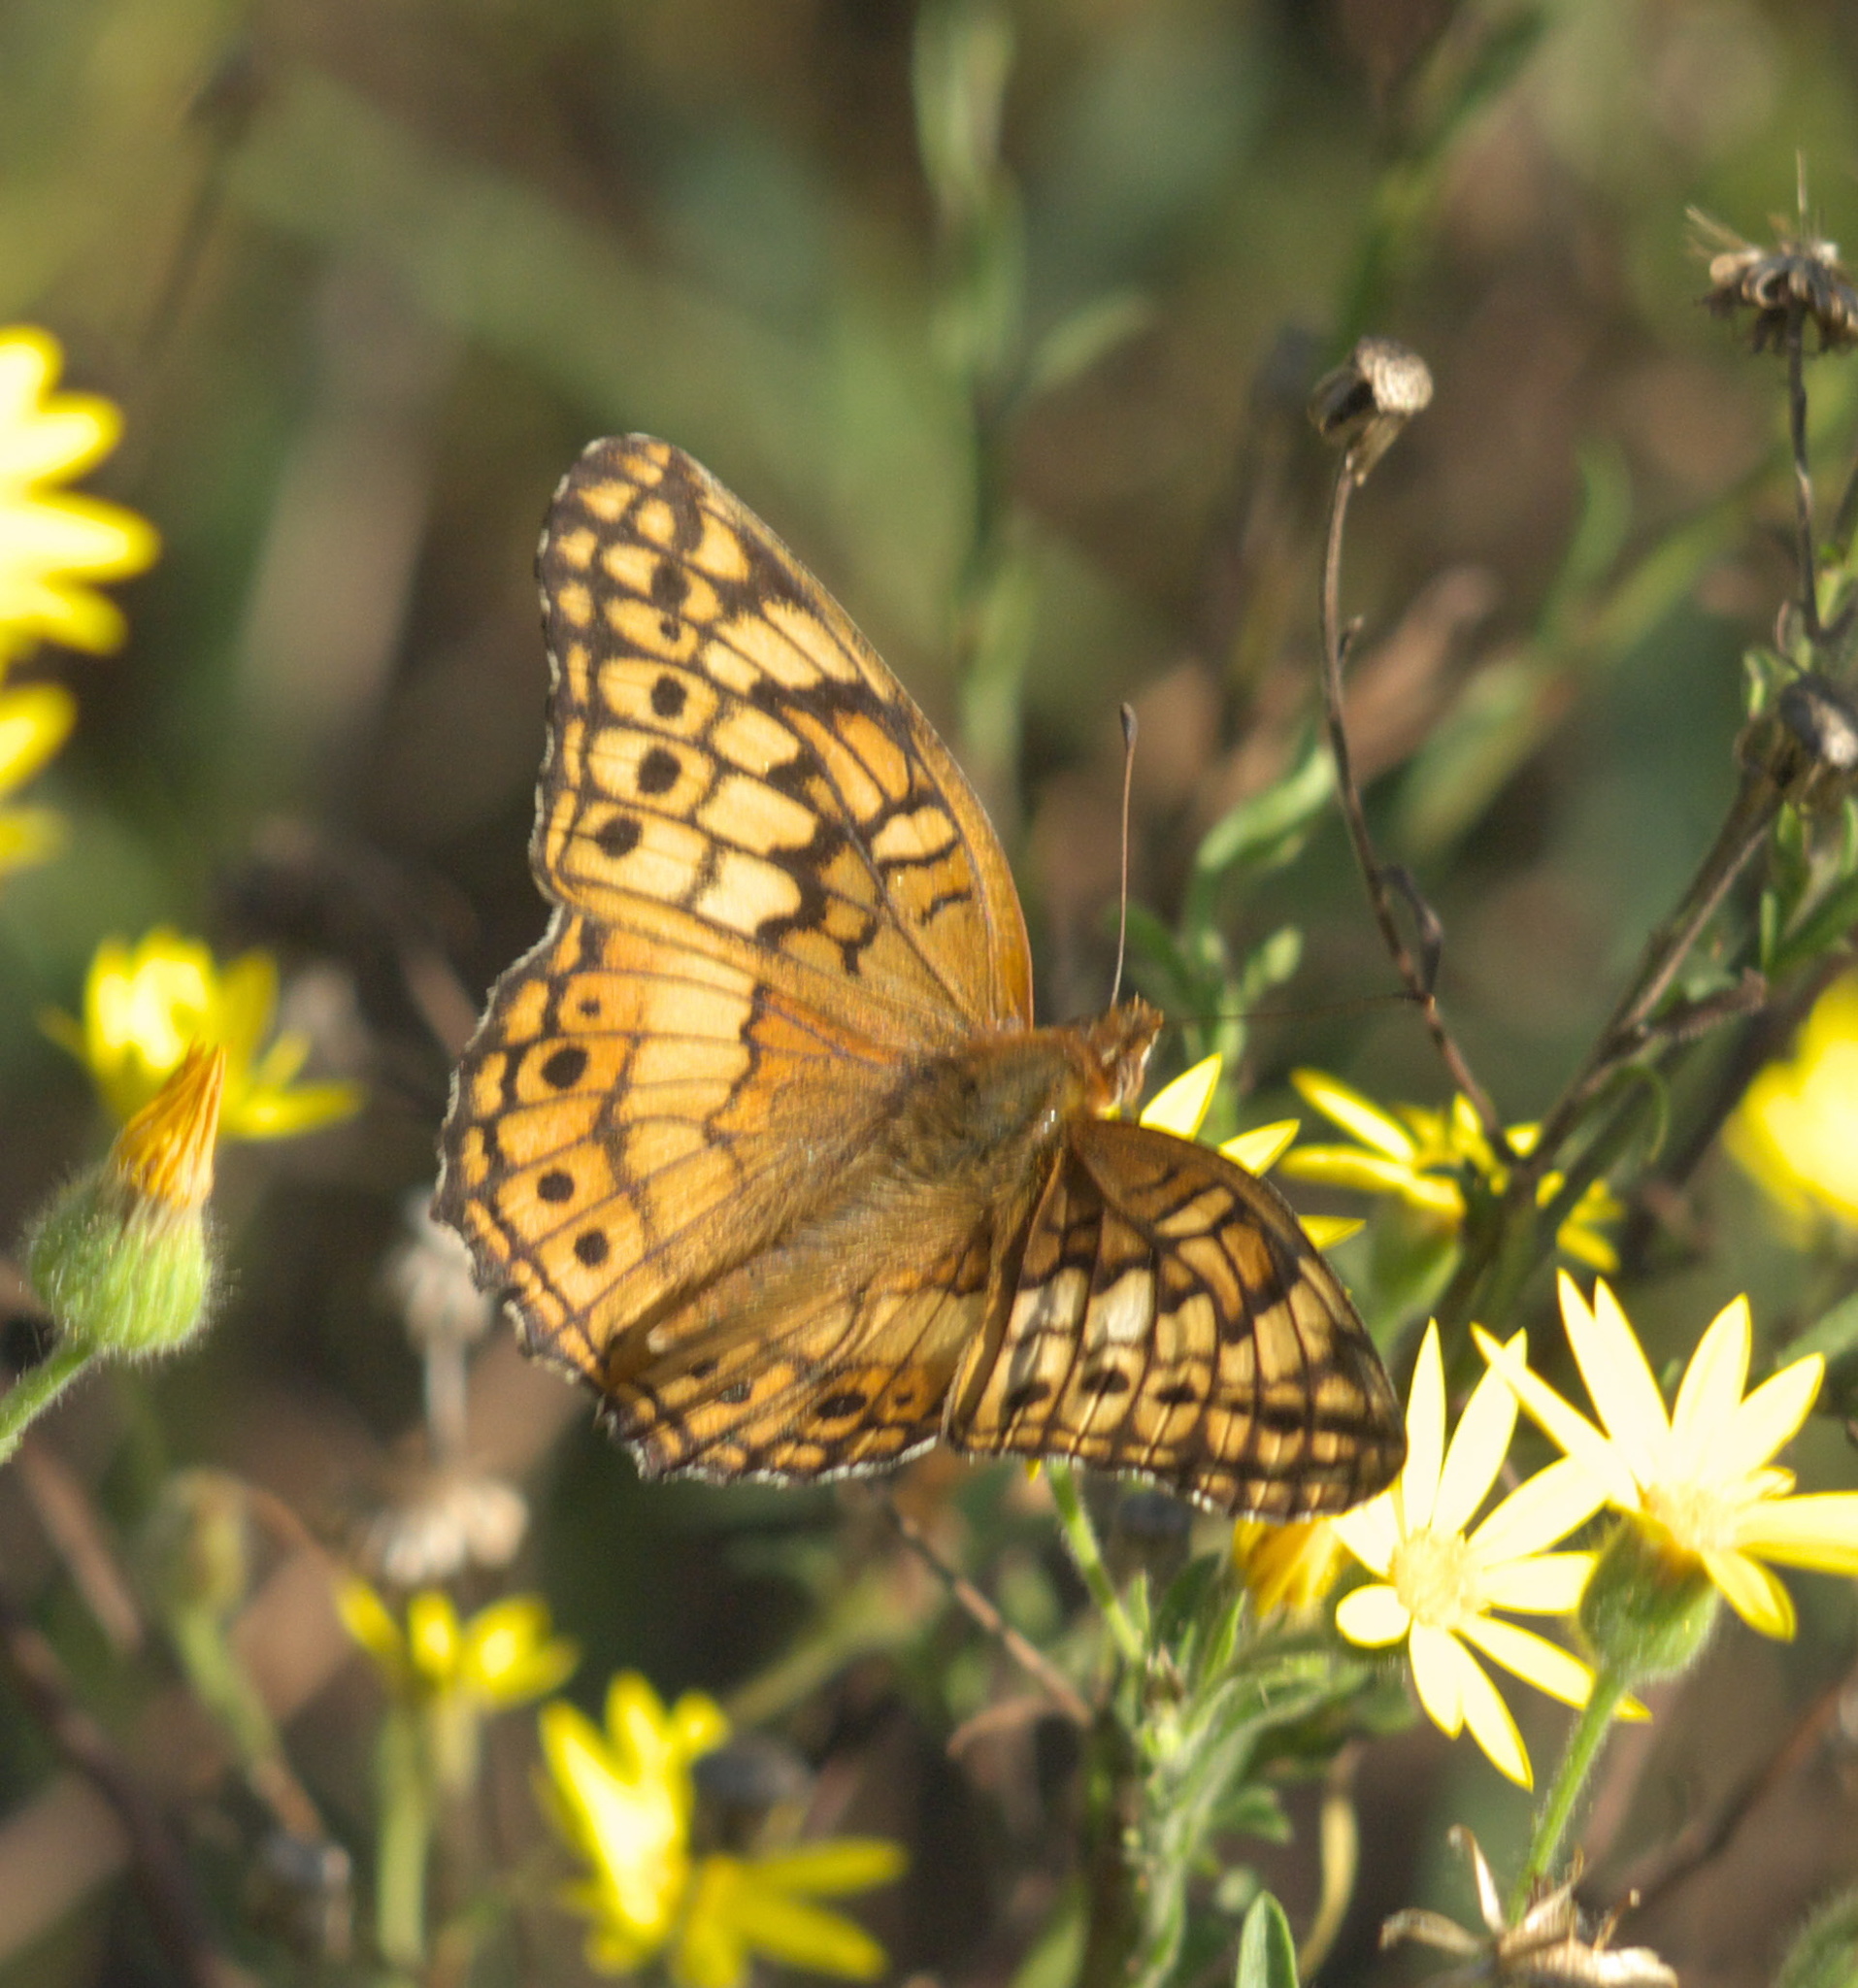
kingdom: Animalia
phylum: Arthropoda
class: Insecta
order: Lepidoptera
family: Nymphalidae
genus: Euptoieta
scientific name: Euptoieta claudia
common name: Variegated fritillary
